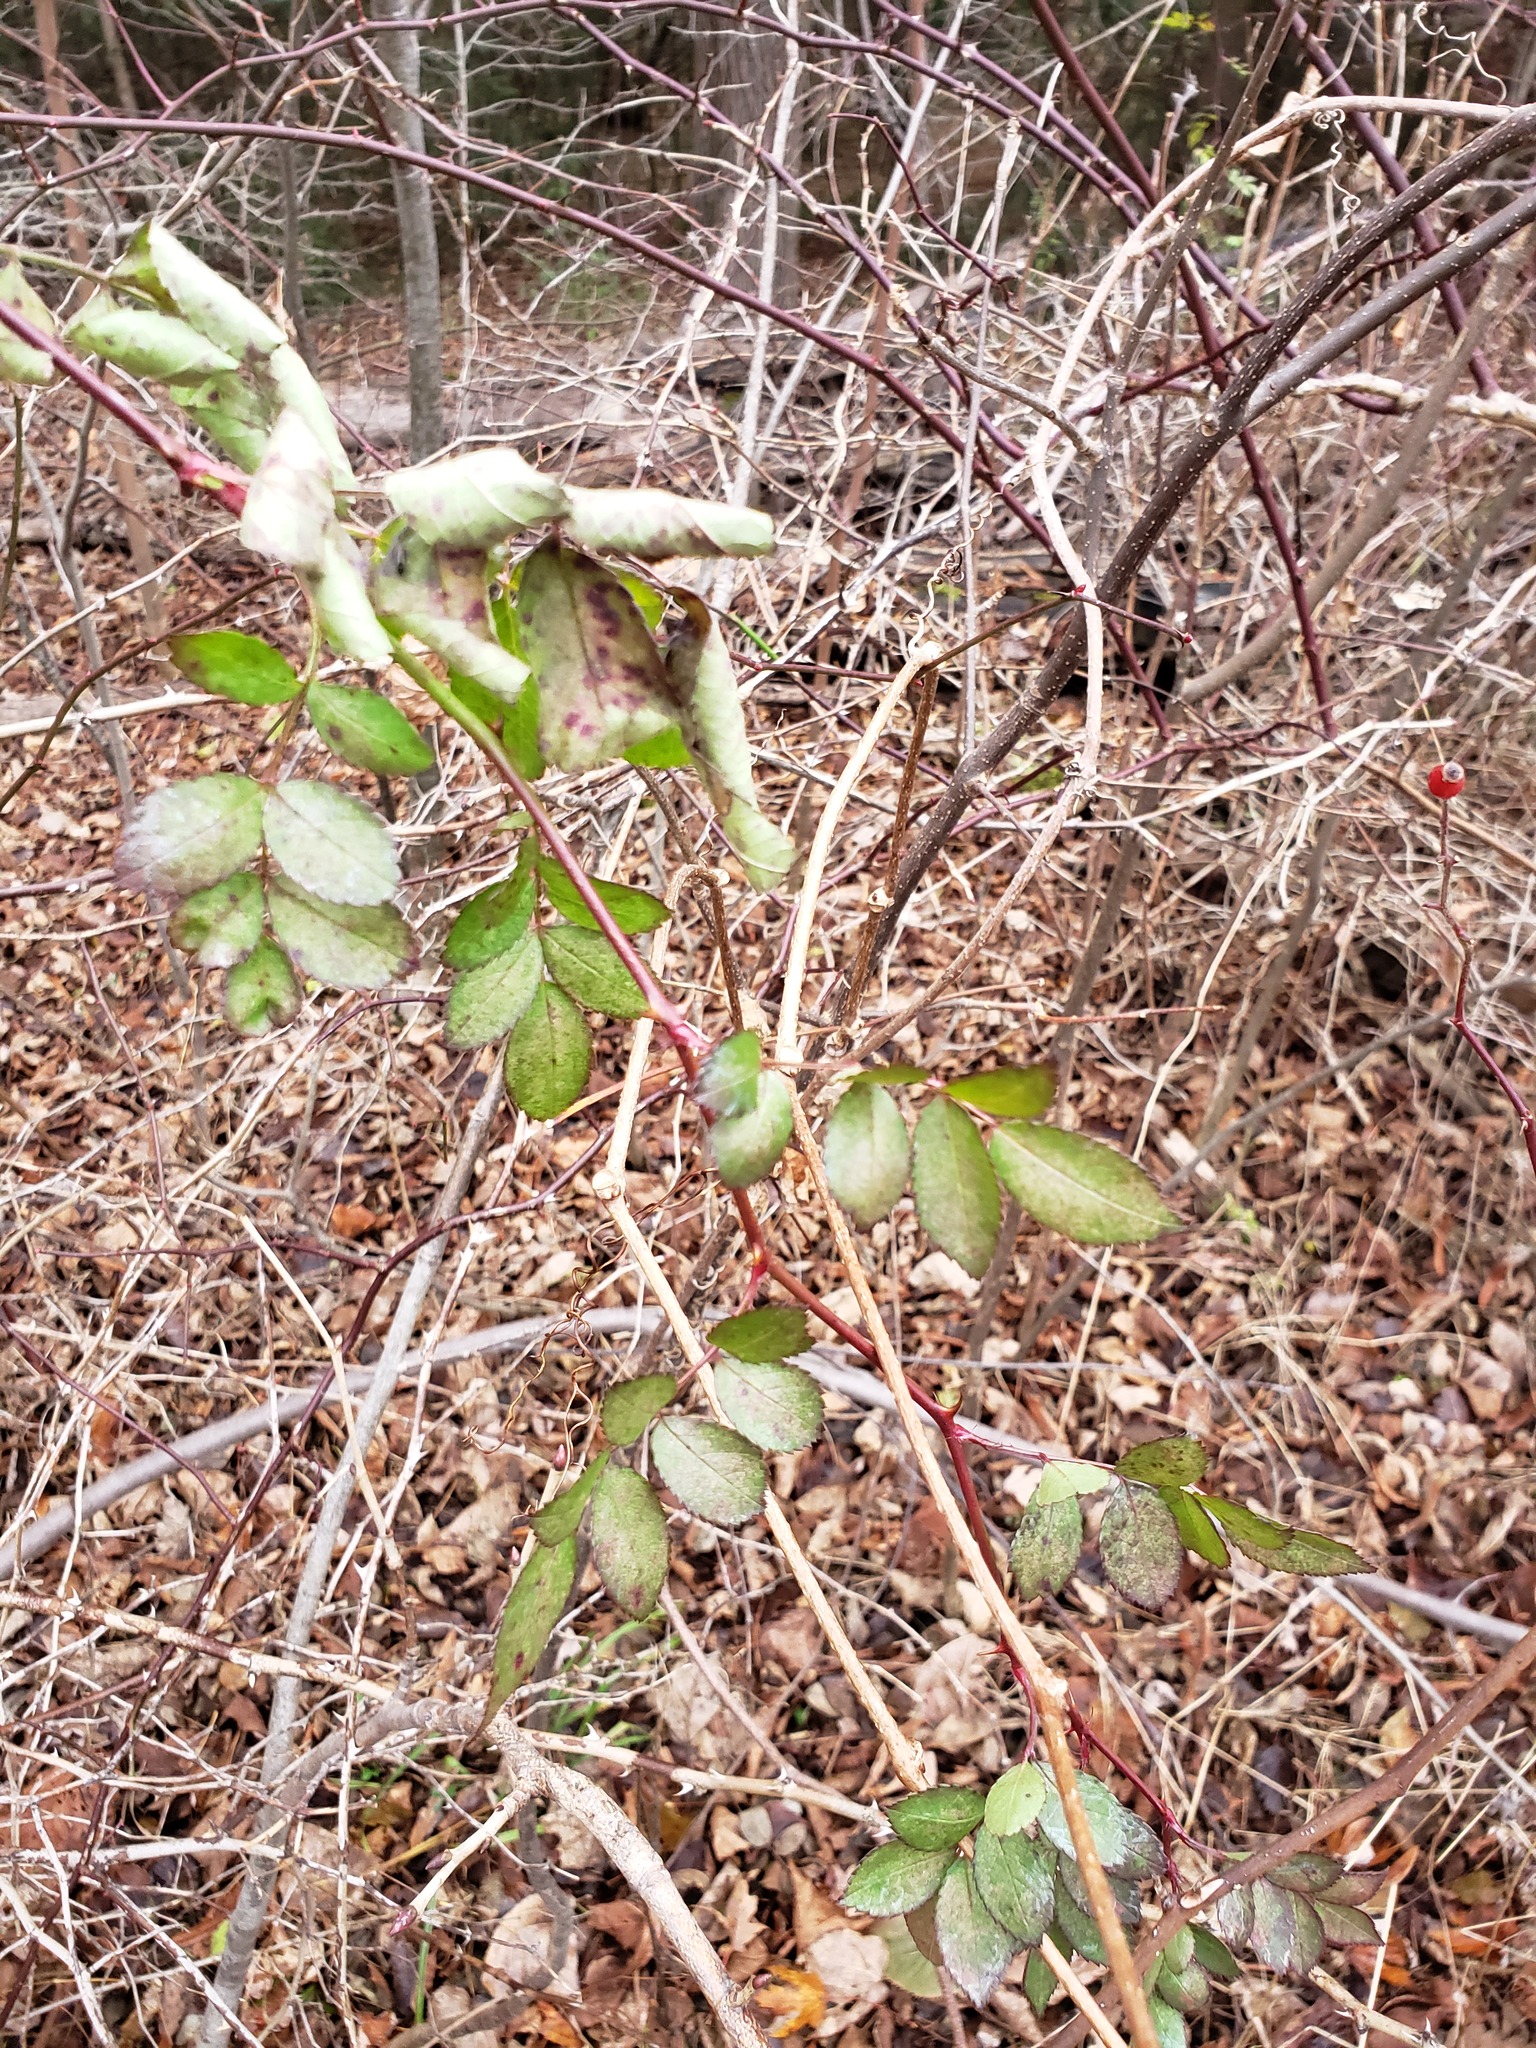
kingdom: Plantae
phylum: Tracheophyta
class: Magnoliopsida
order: Rosales
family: Rosaceae
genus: Rosa
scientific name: Rosa multiflora
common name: Multiflora rose
